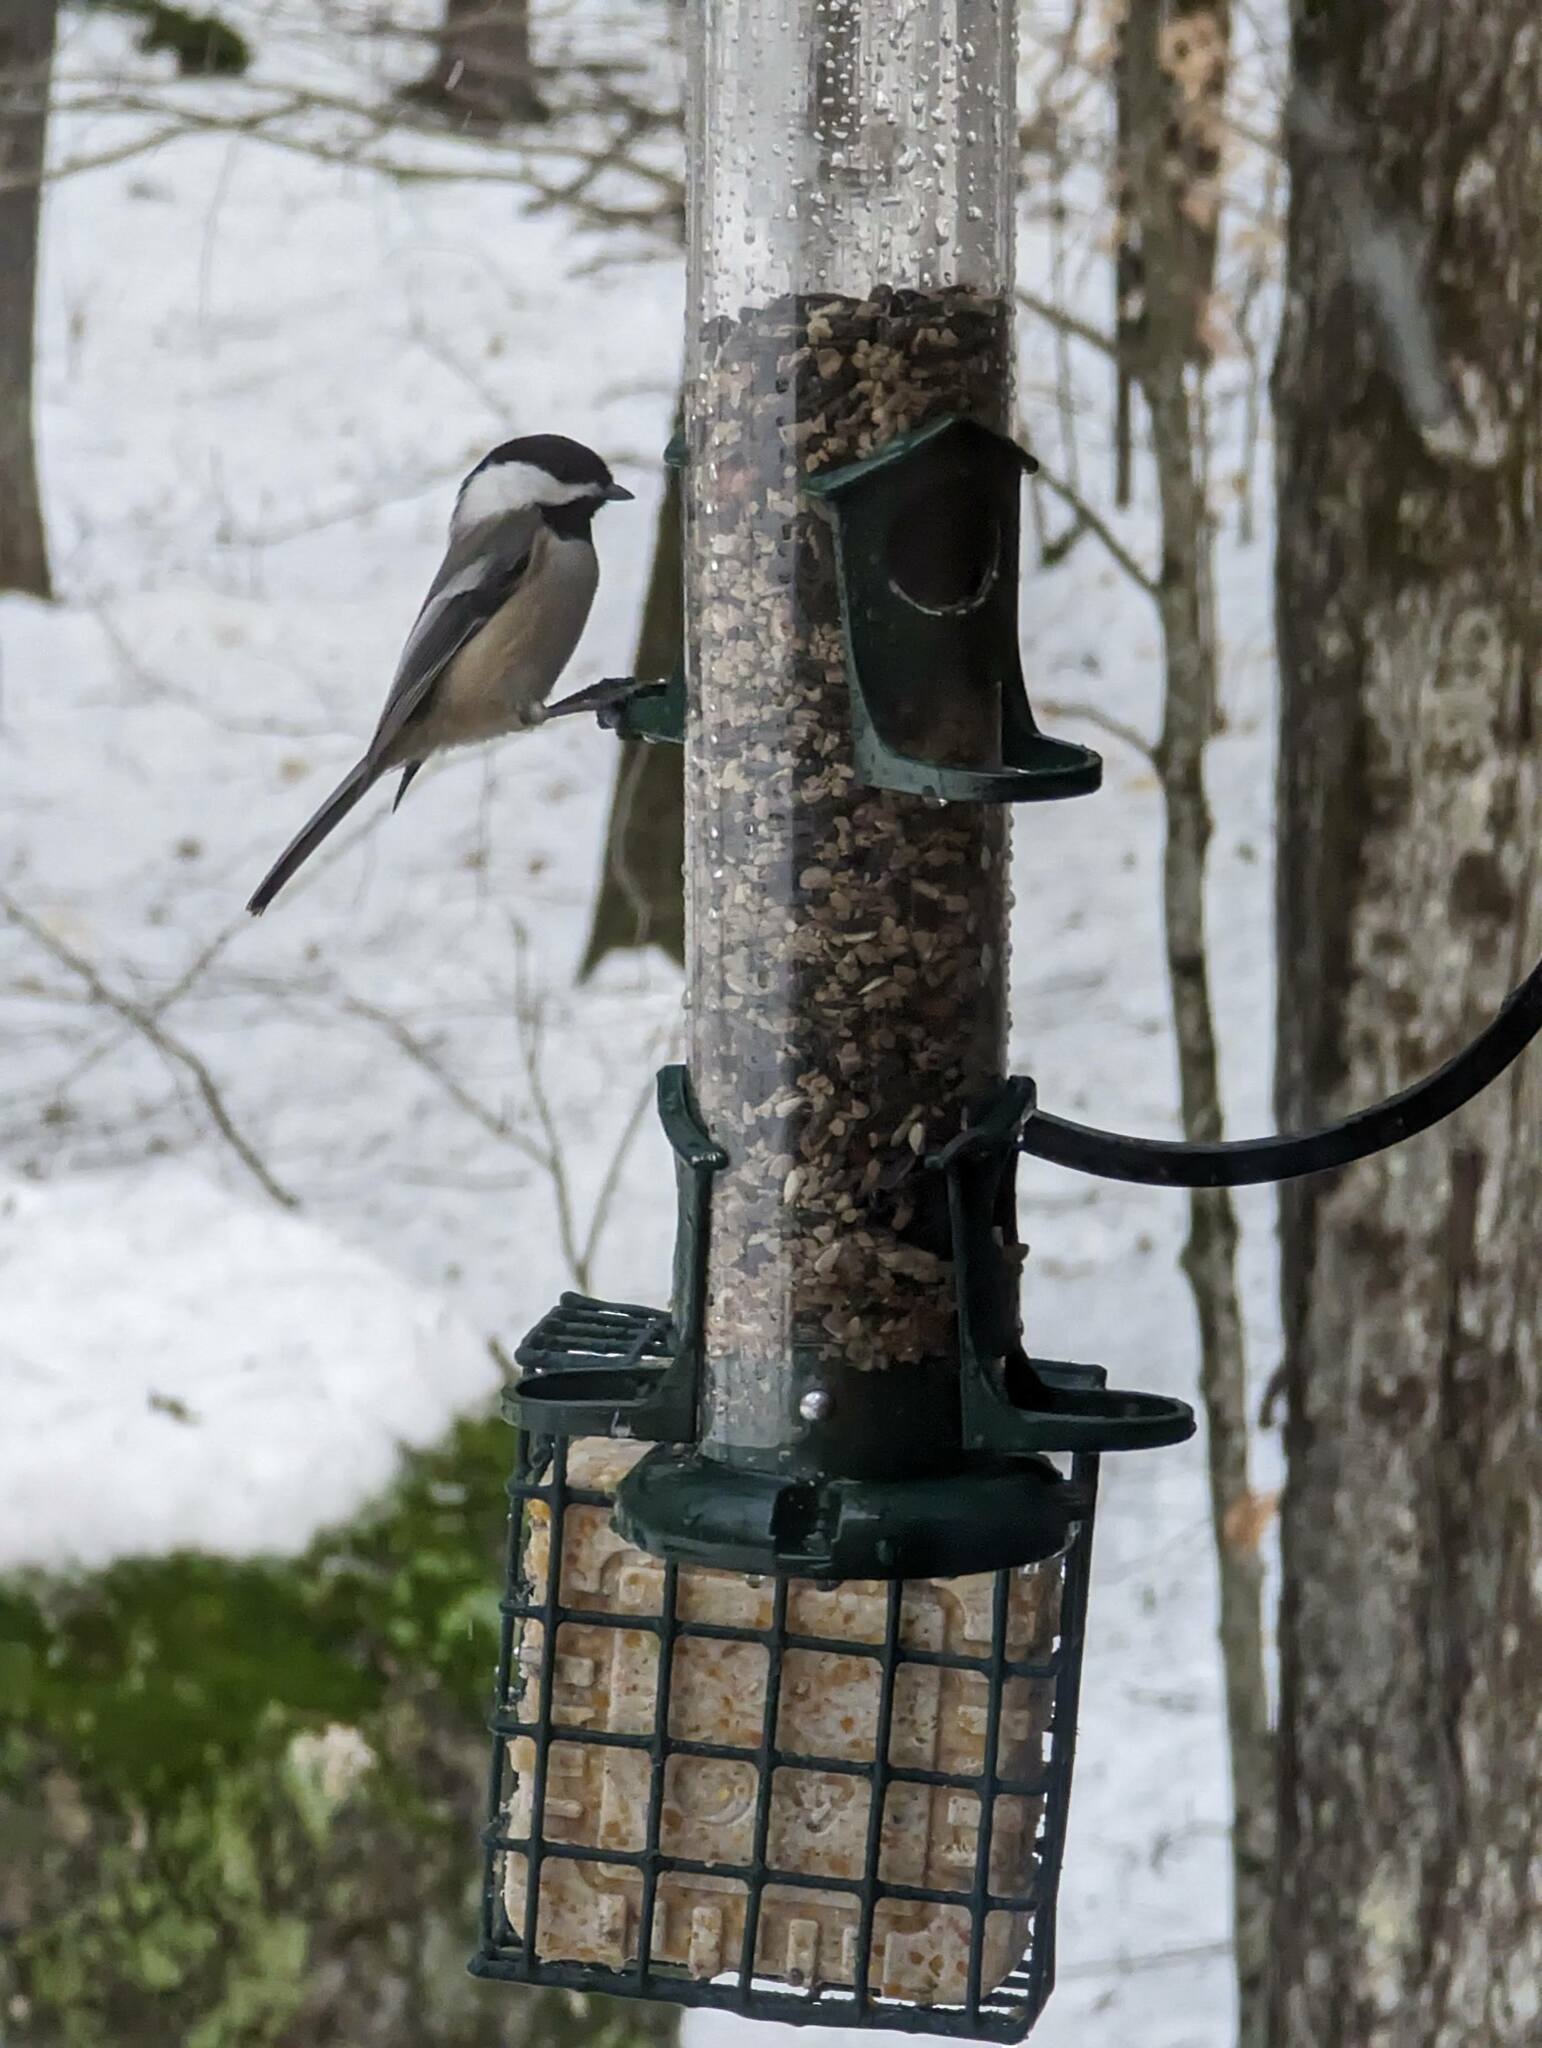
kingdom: Animalia
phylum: Chordata
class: Aves
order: Passeriformes
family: Paridae
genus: Poecile
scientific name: Poecile atricapillus
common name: Black-capped chickadee
